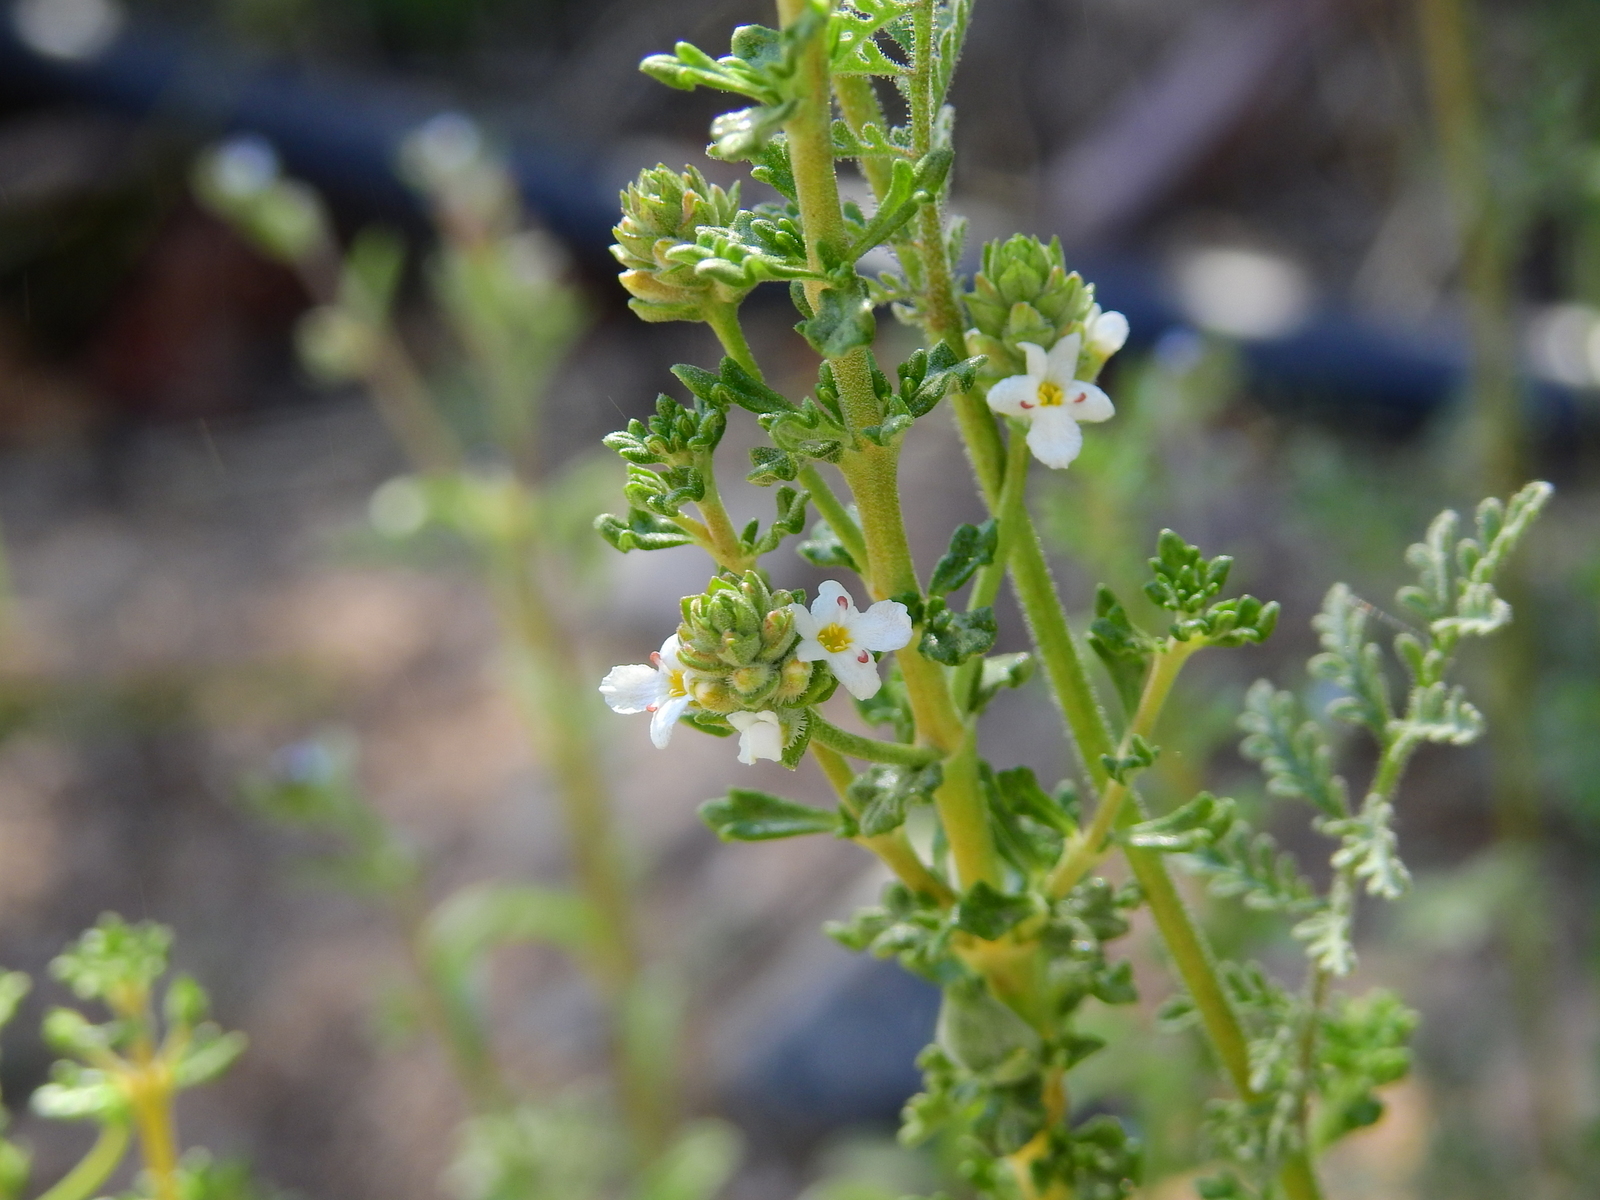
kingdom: Plantae
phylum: Tracheophyta
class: Magnoliopsida
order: Lamiales
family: Verbenaceae
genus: Acantholippia
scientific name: Acantholippia seriphioides
